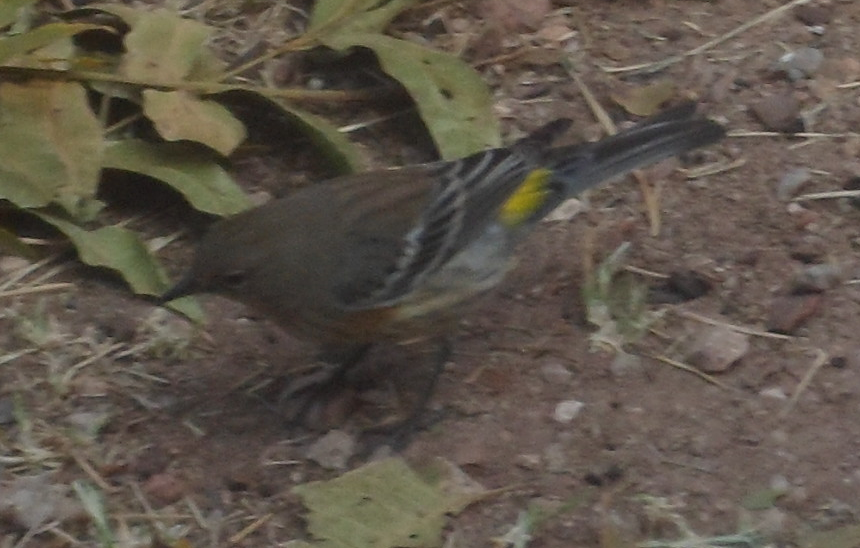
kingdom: Animalia
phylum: Chordata
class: Aves
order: Passeriformes
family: Parulidae
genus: Setophaga
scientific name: Setophaga auduboni
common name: Audubon's warbler
